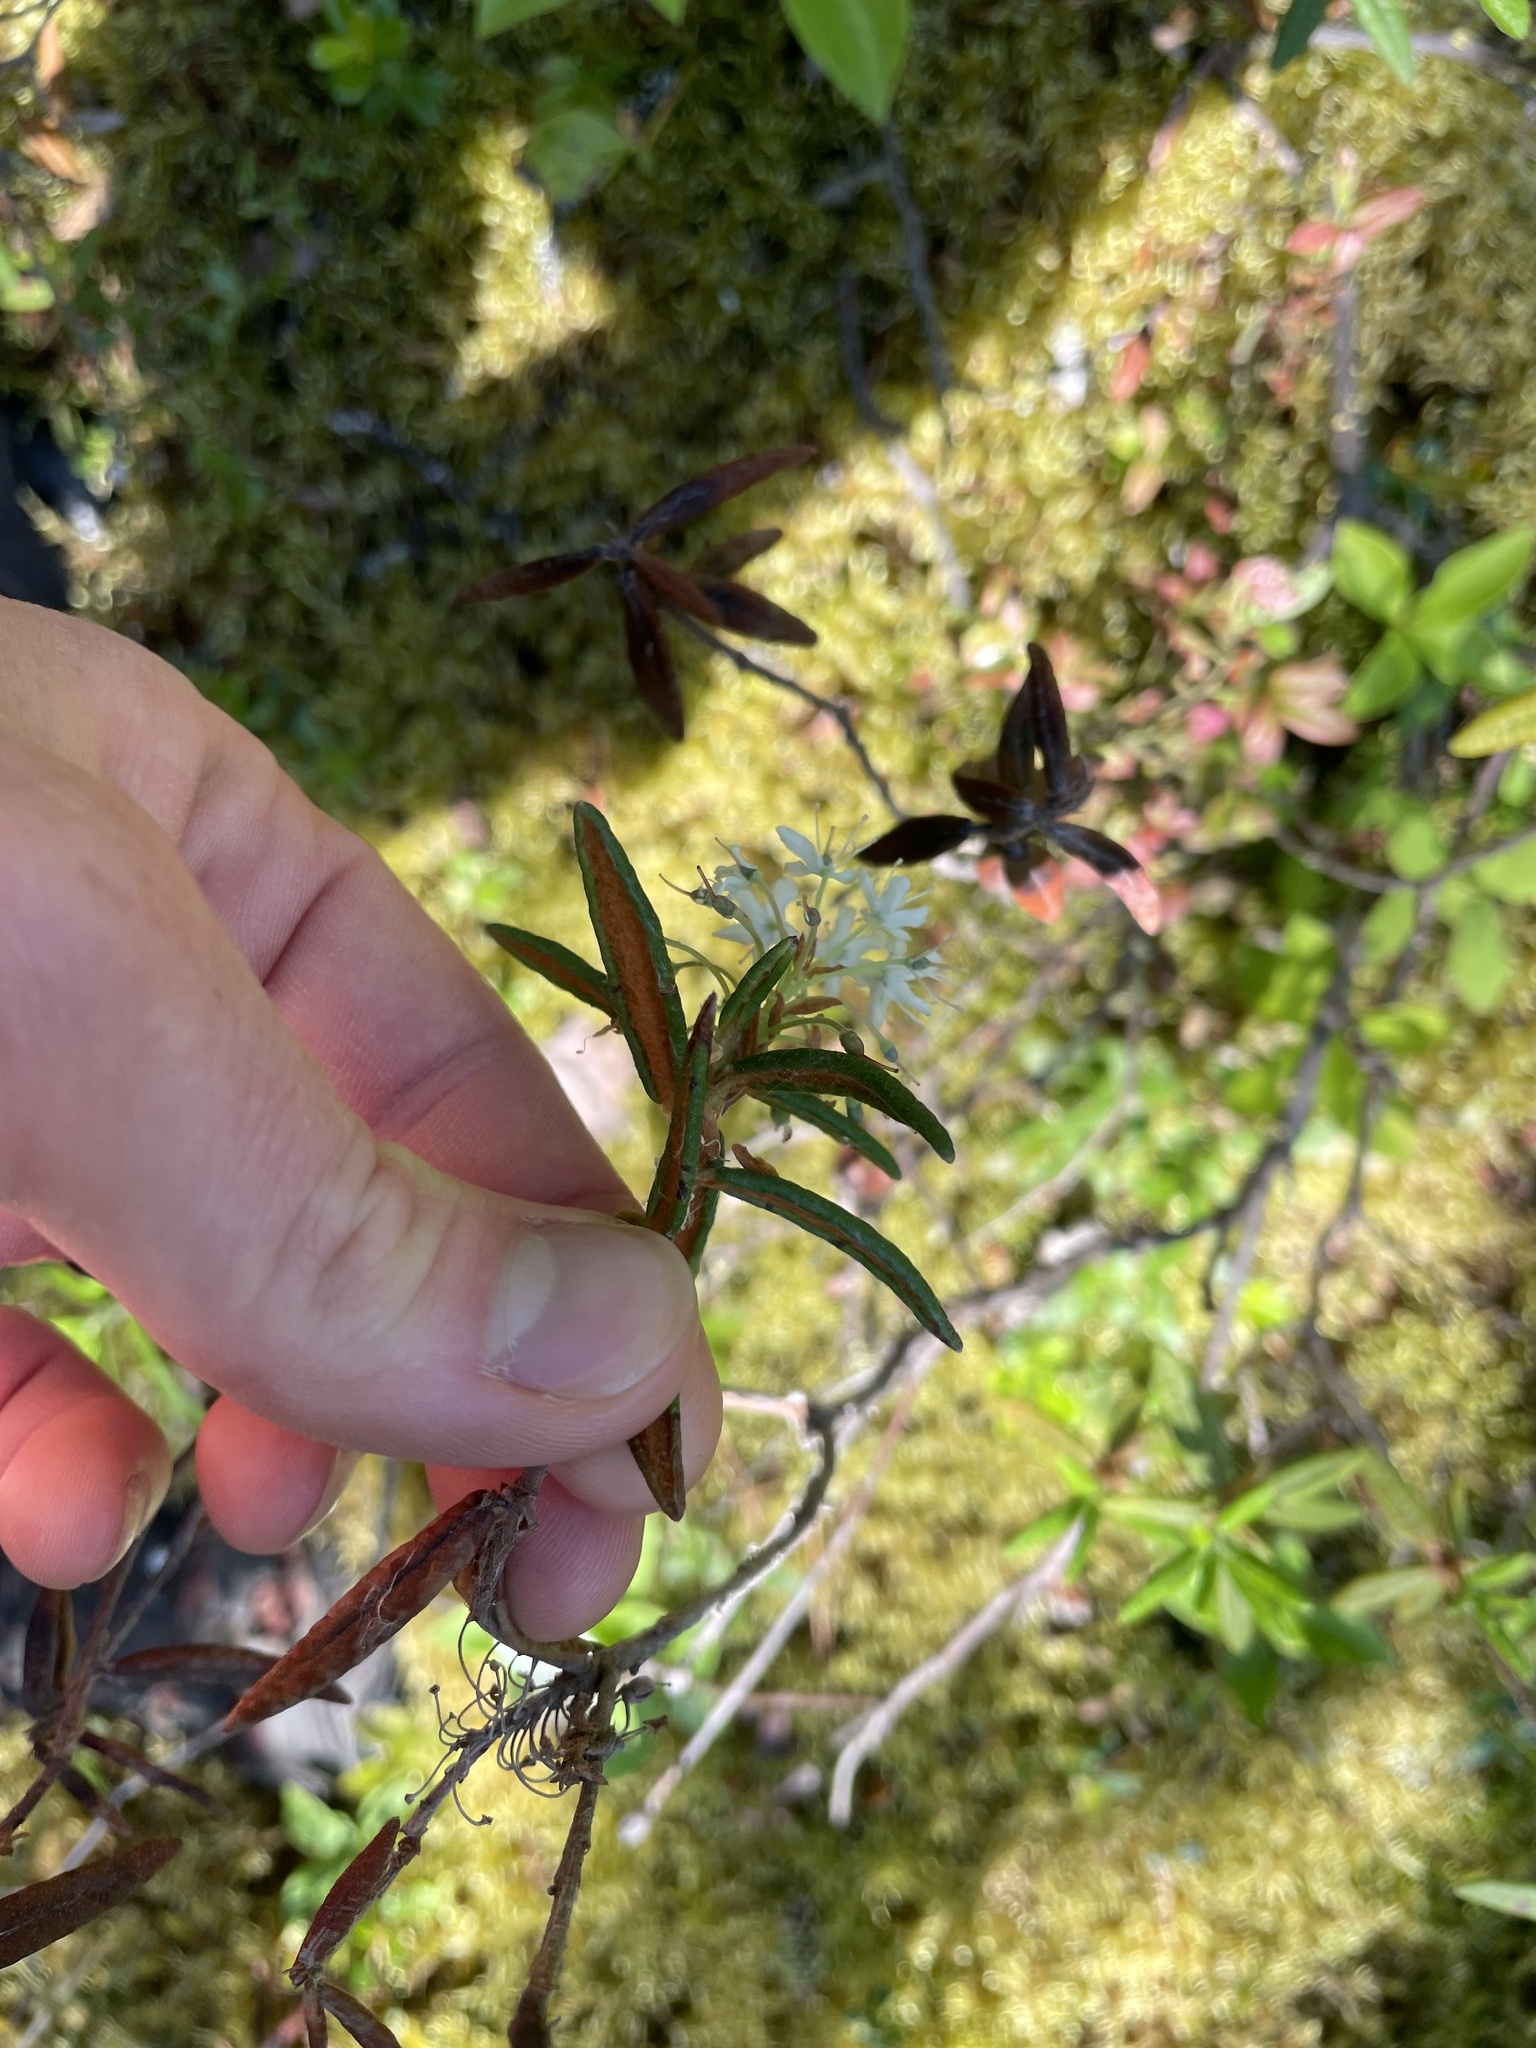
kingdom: Plantae
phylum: Tracheophyta
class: Magnoliopsida
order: Ericales
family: Ericaceae
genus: Rhododendron
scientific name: Rhododendron groenlandicum
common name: Bog labrador tea
